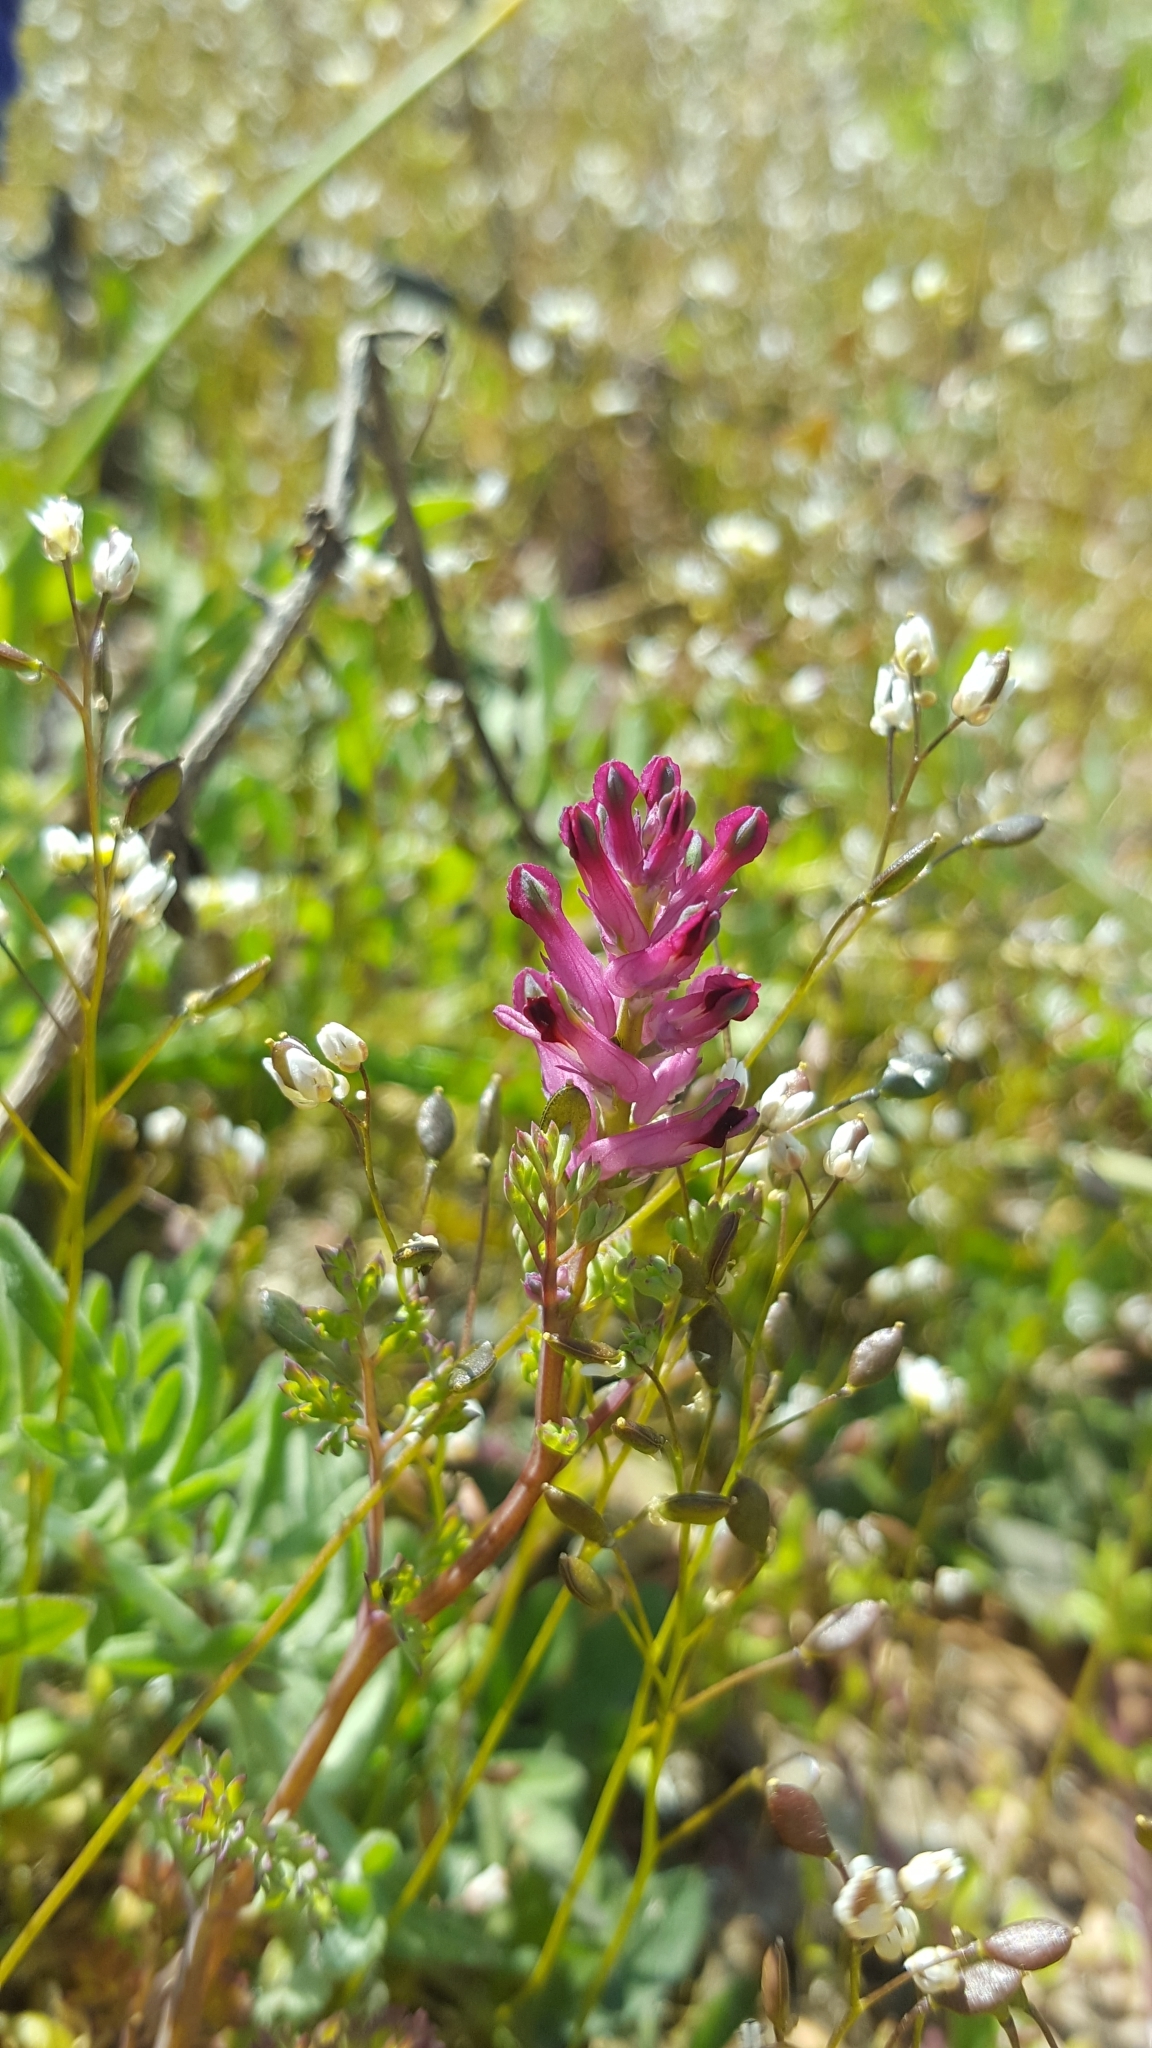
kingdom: Plantae
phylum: Tracheophyta
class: Magnoliopsida
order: Brassicales
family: Brassicaceae
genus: Draba
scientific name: Draba verna
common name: Spring draba
